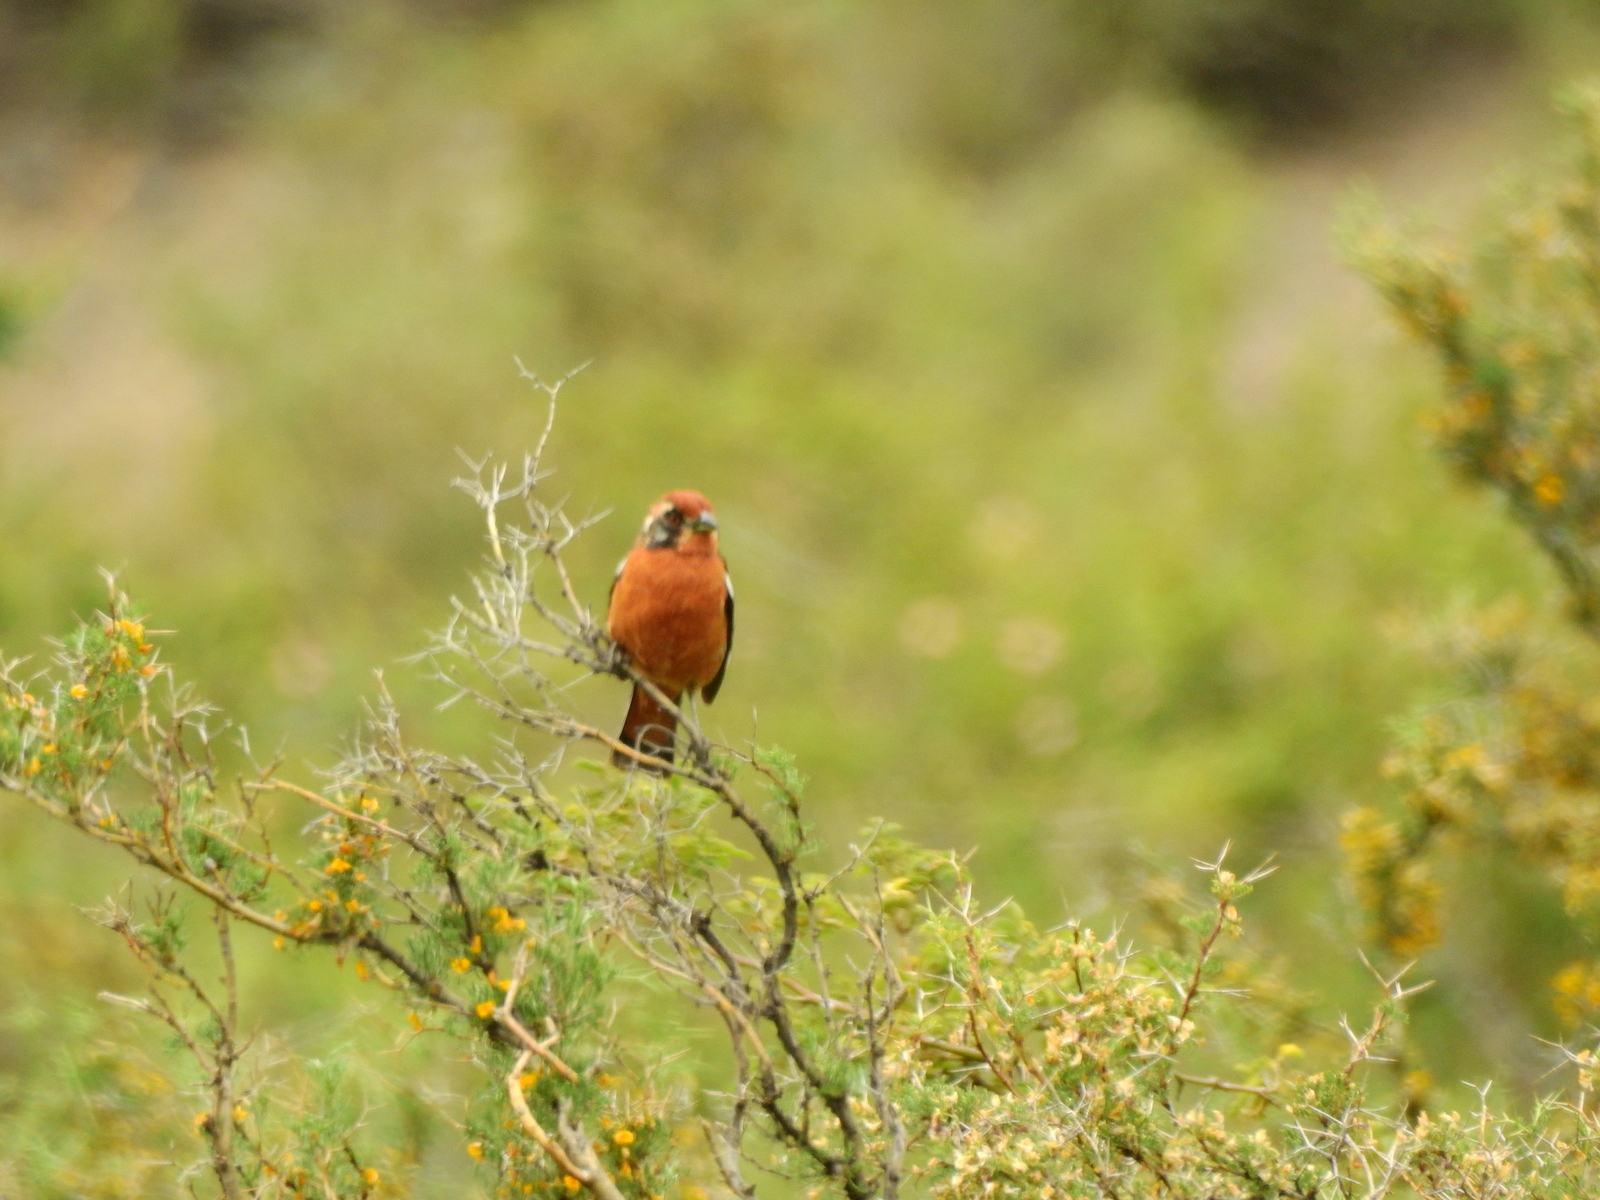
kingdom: Animalia
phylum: Chordata
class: Aves
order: Passeriformes
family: Cotingidae
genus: Phytotoma
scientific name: Phytotoma rara
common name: Rufous-tailed plantcutter
